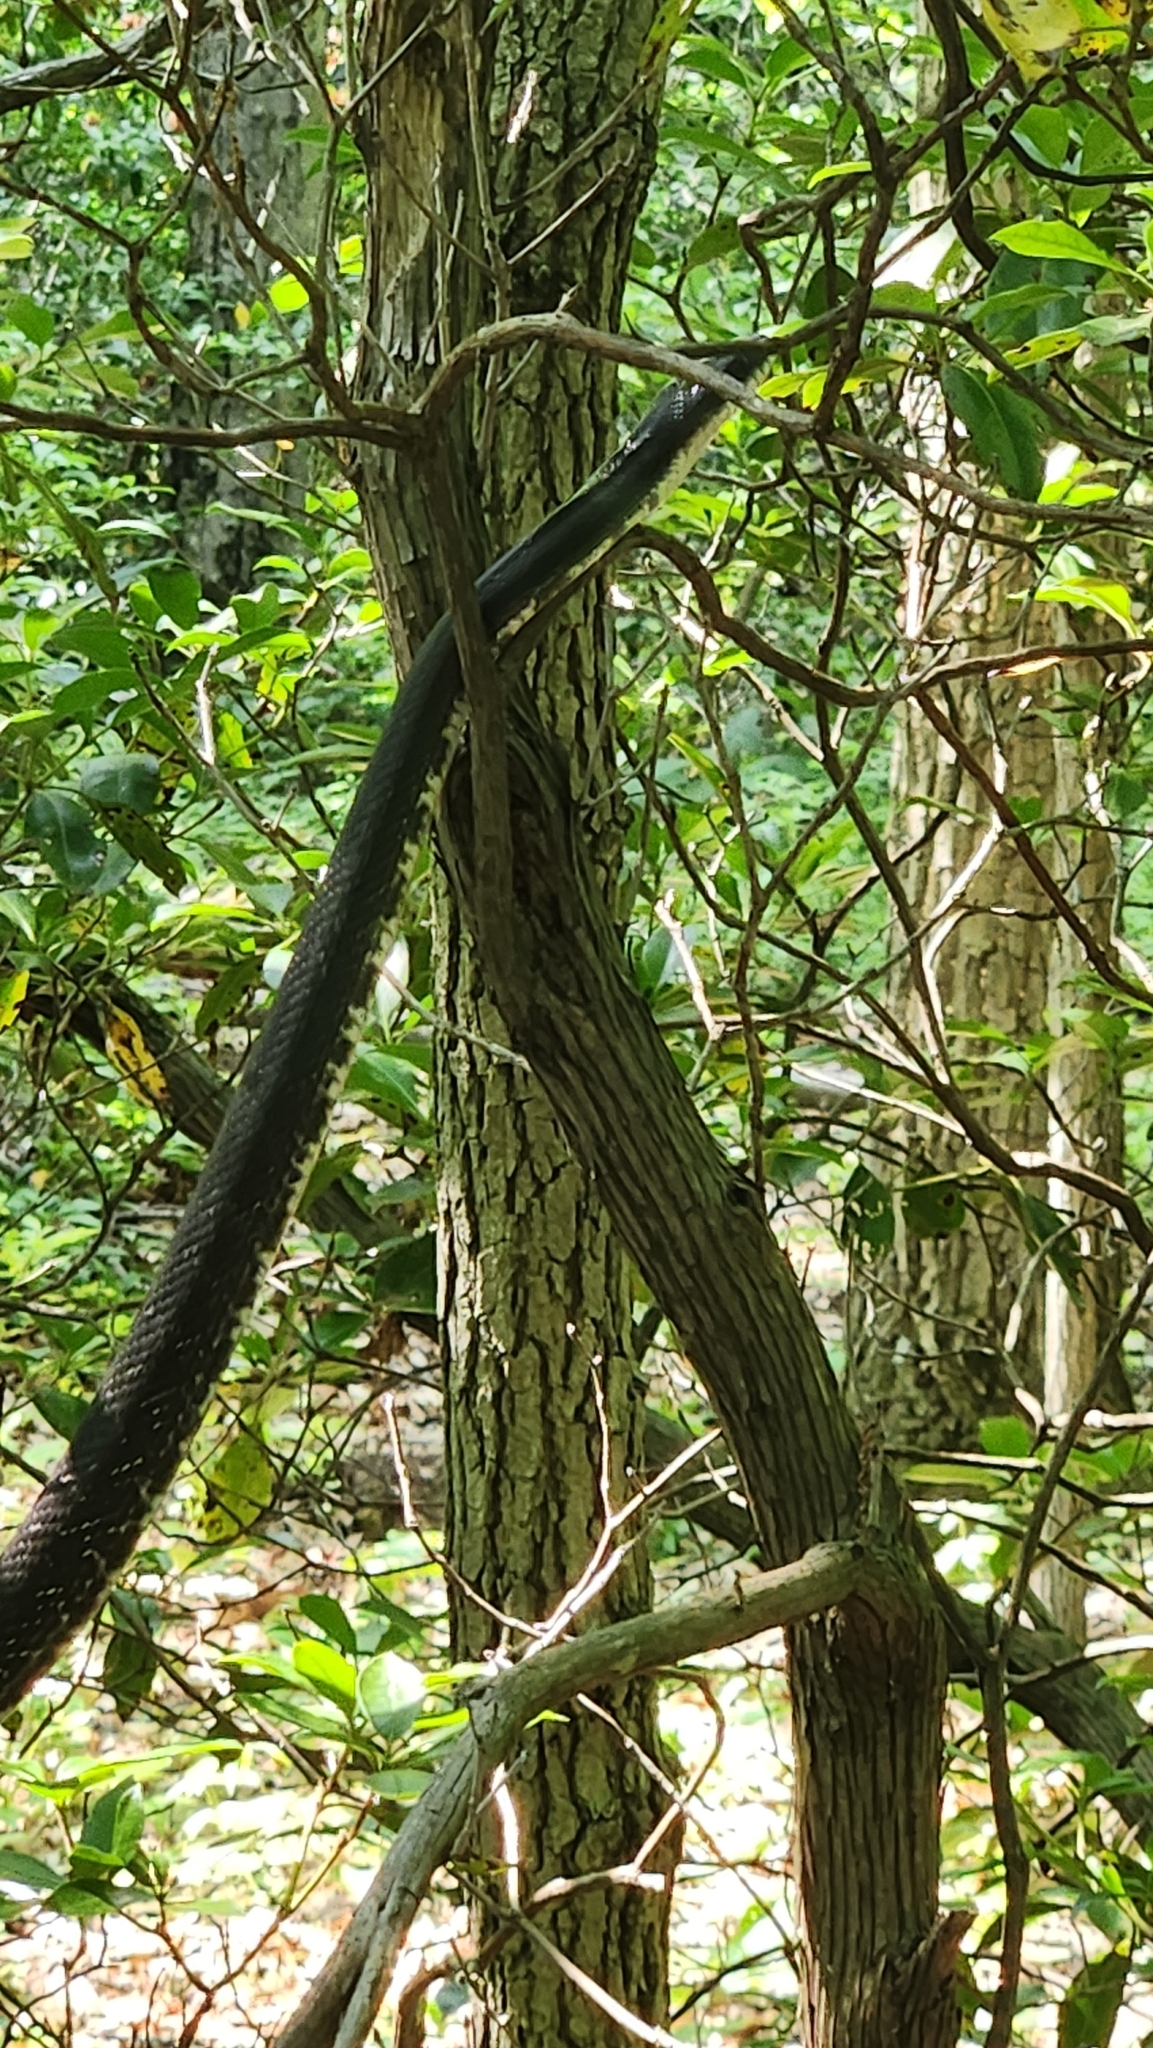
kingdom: Animalia
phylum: Chordata
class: Squamata
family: Colubridae
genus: Pantherophis
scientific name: Pantherophis
